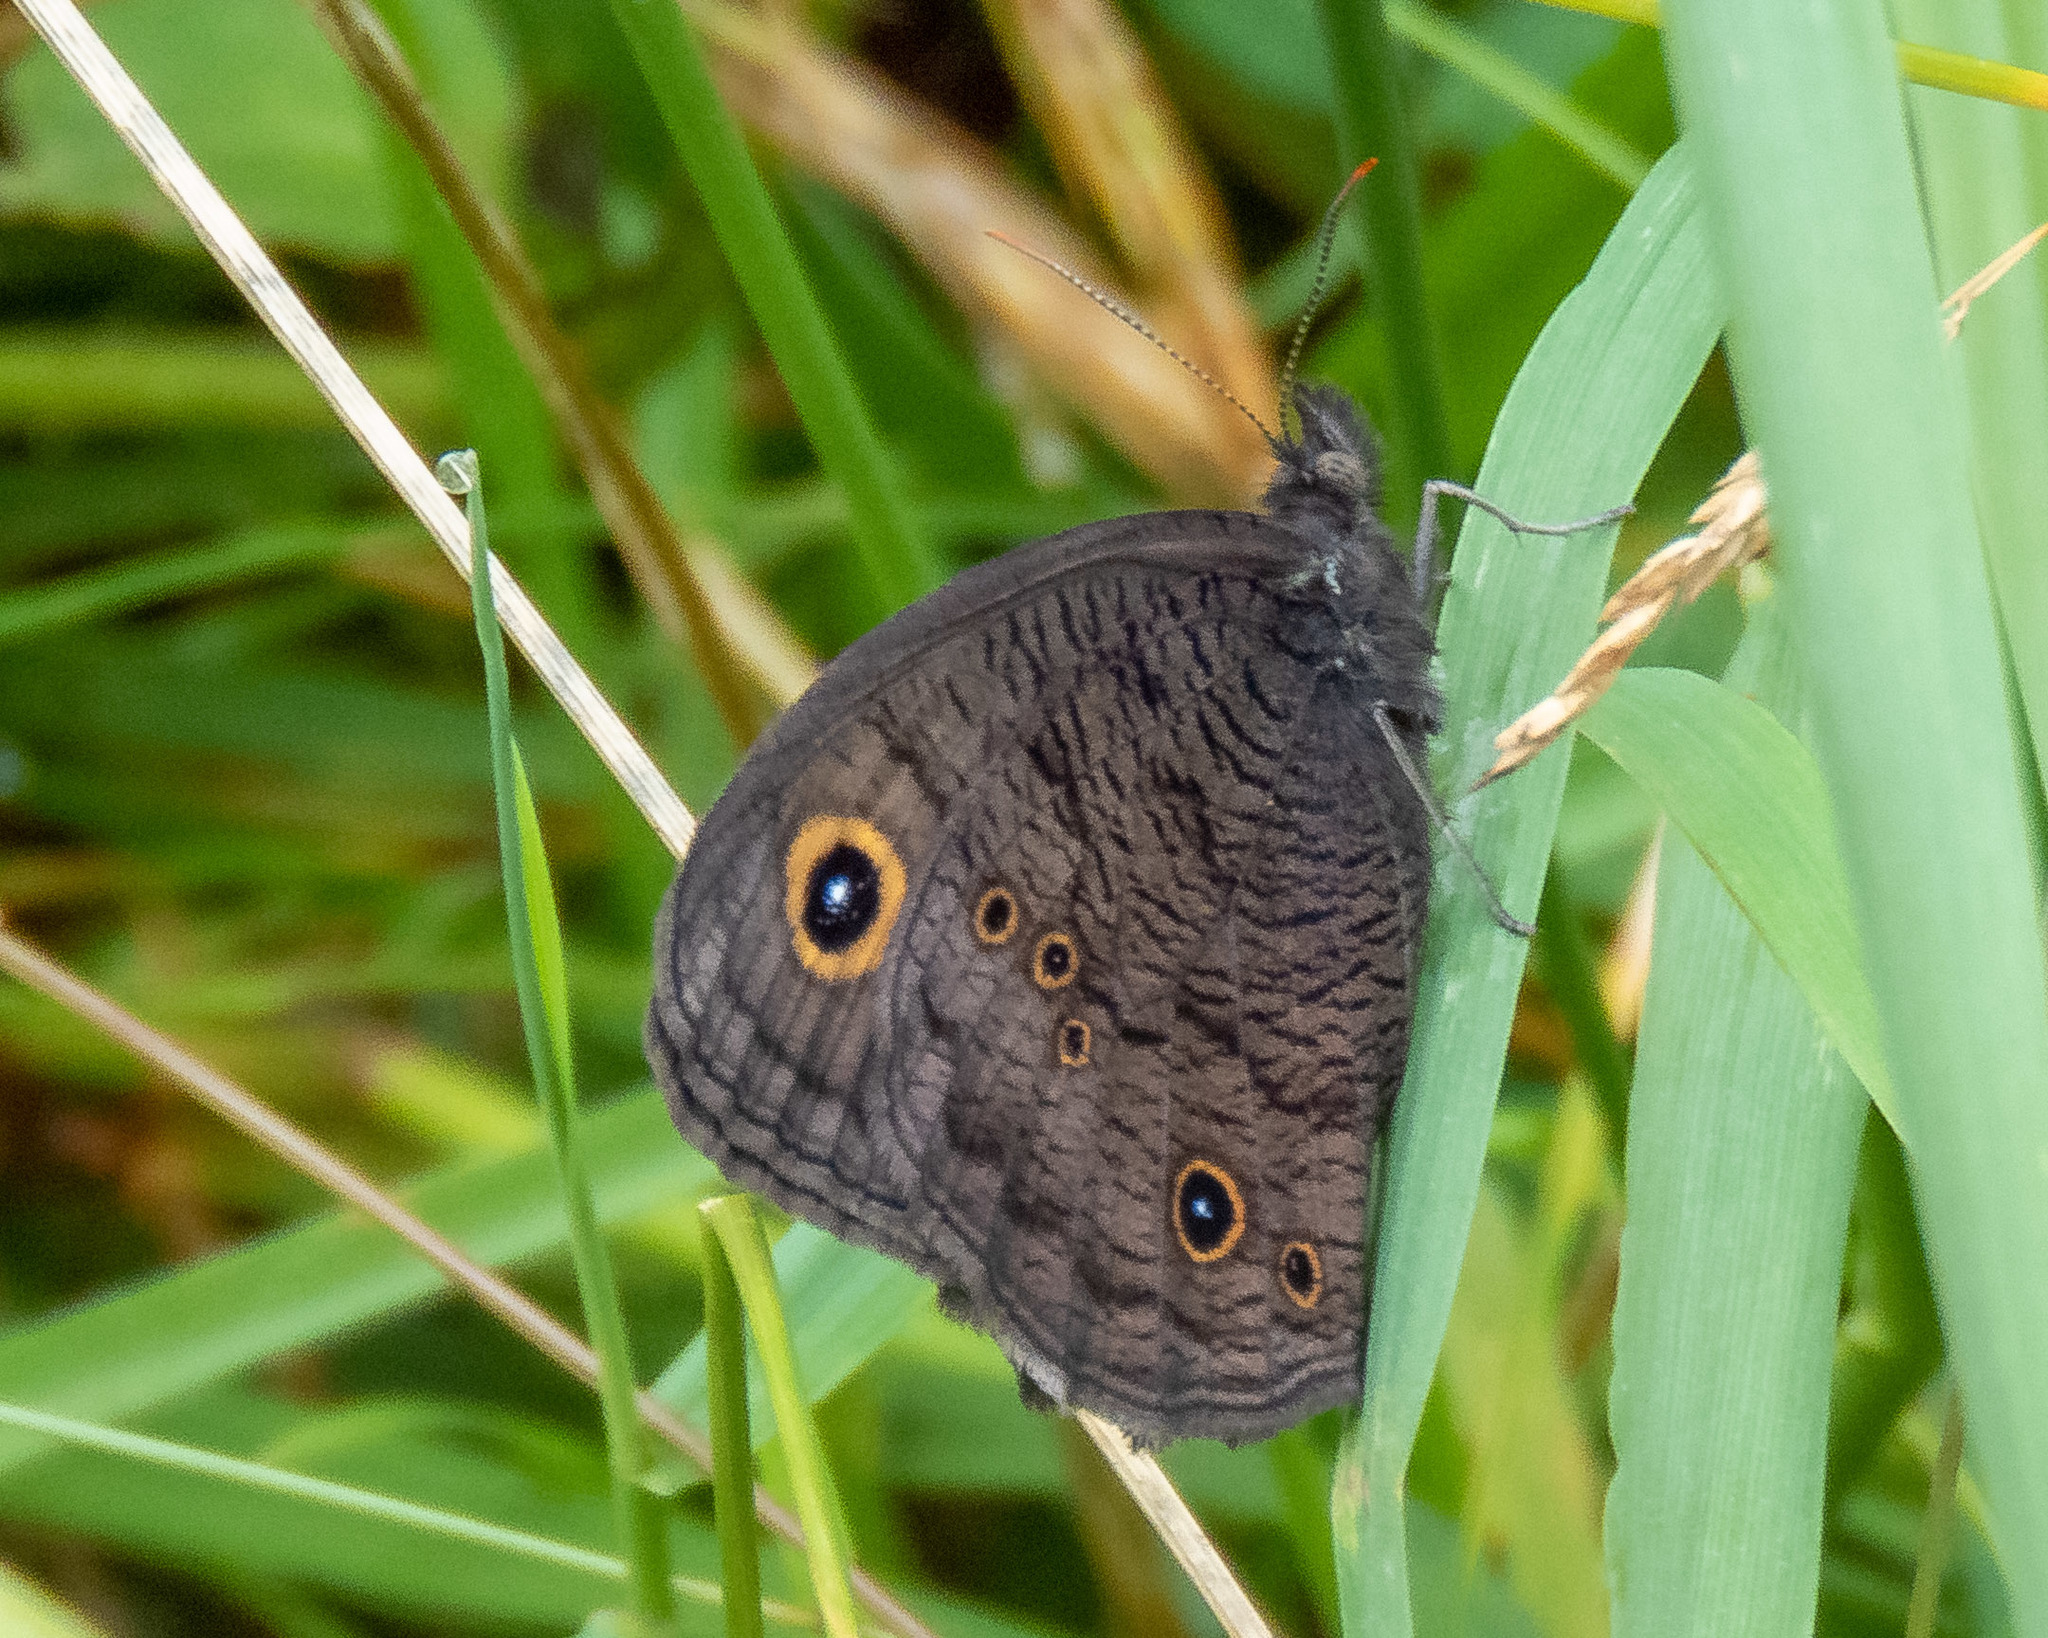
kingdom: Animalia
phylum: Arthropoda
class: Insecta
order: Lepidoptera
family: Nymphalidae
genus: Cercyonis
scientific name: Cercyonis pegala
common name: Common wood-nymph
